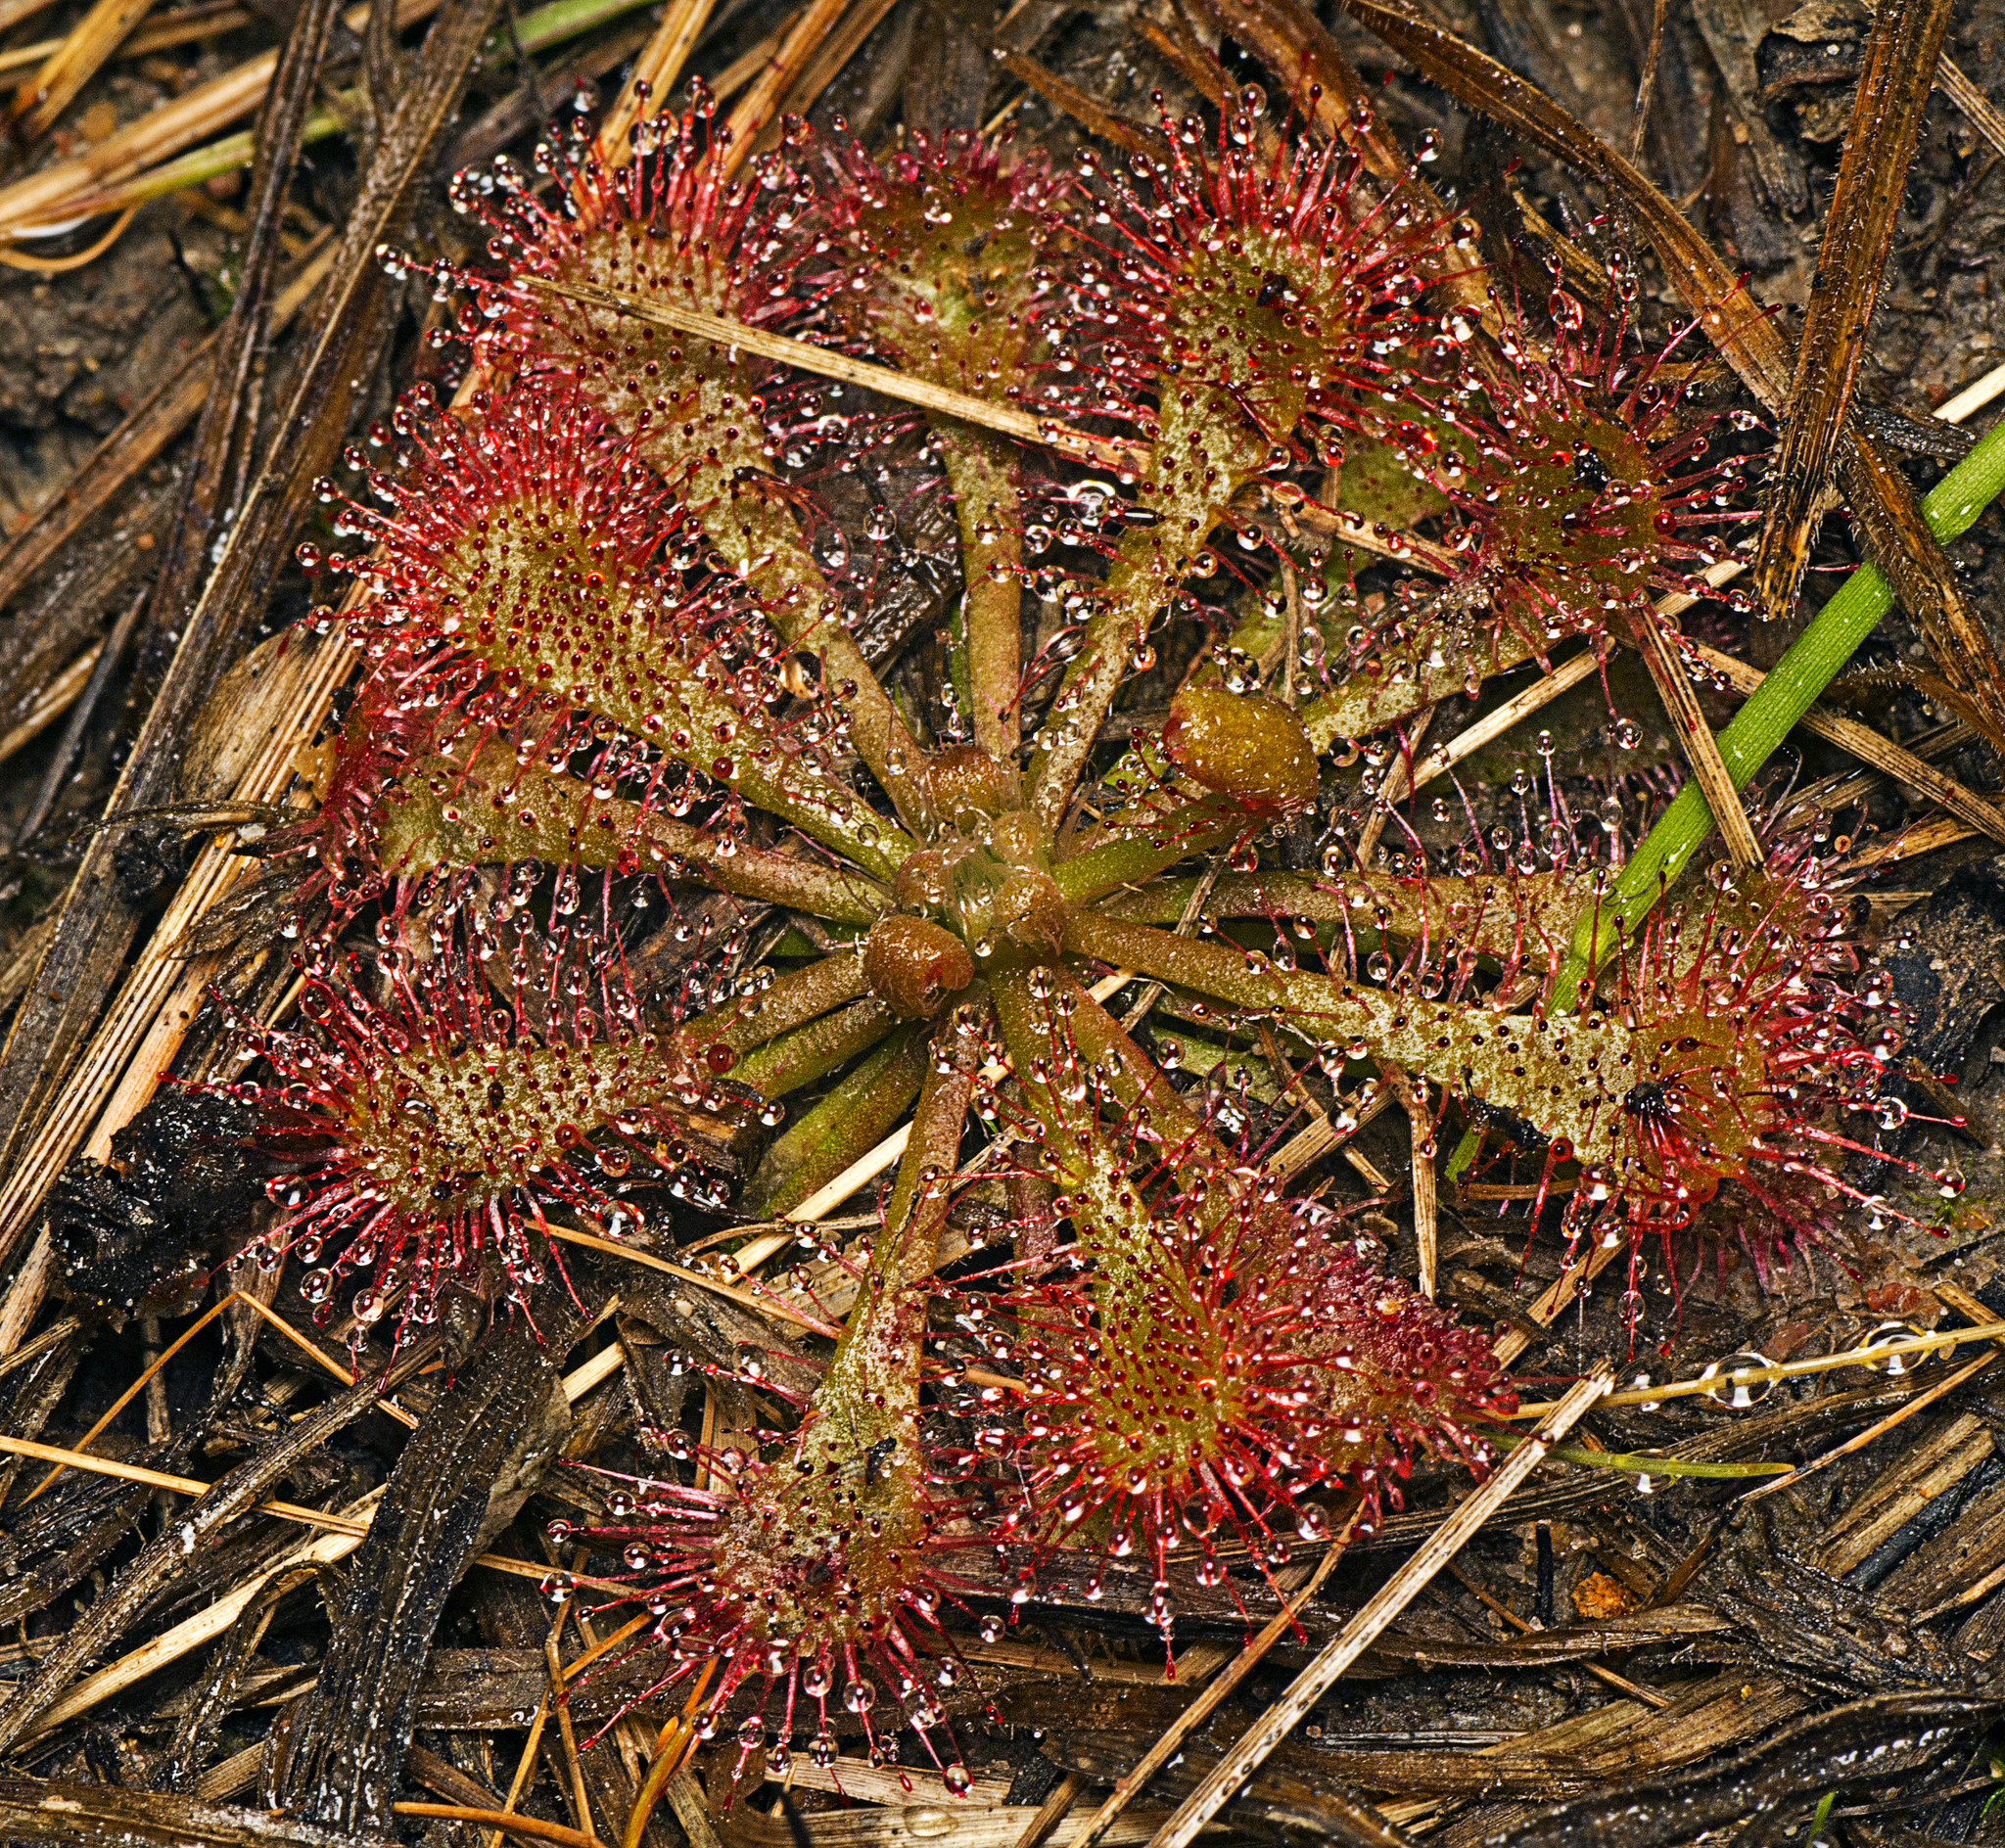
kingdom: Plantae
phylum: Tracheophyta
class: Magnoliopsida
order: Caryophyllales
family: Droseraceae
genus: Drosera
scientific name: Drosera spatulata
